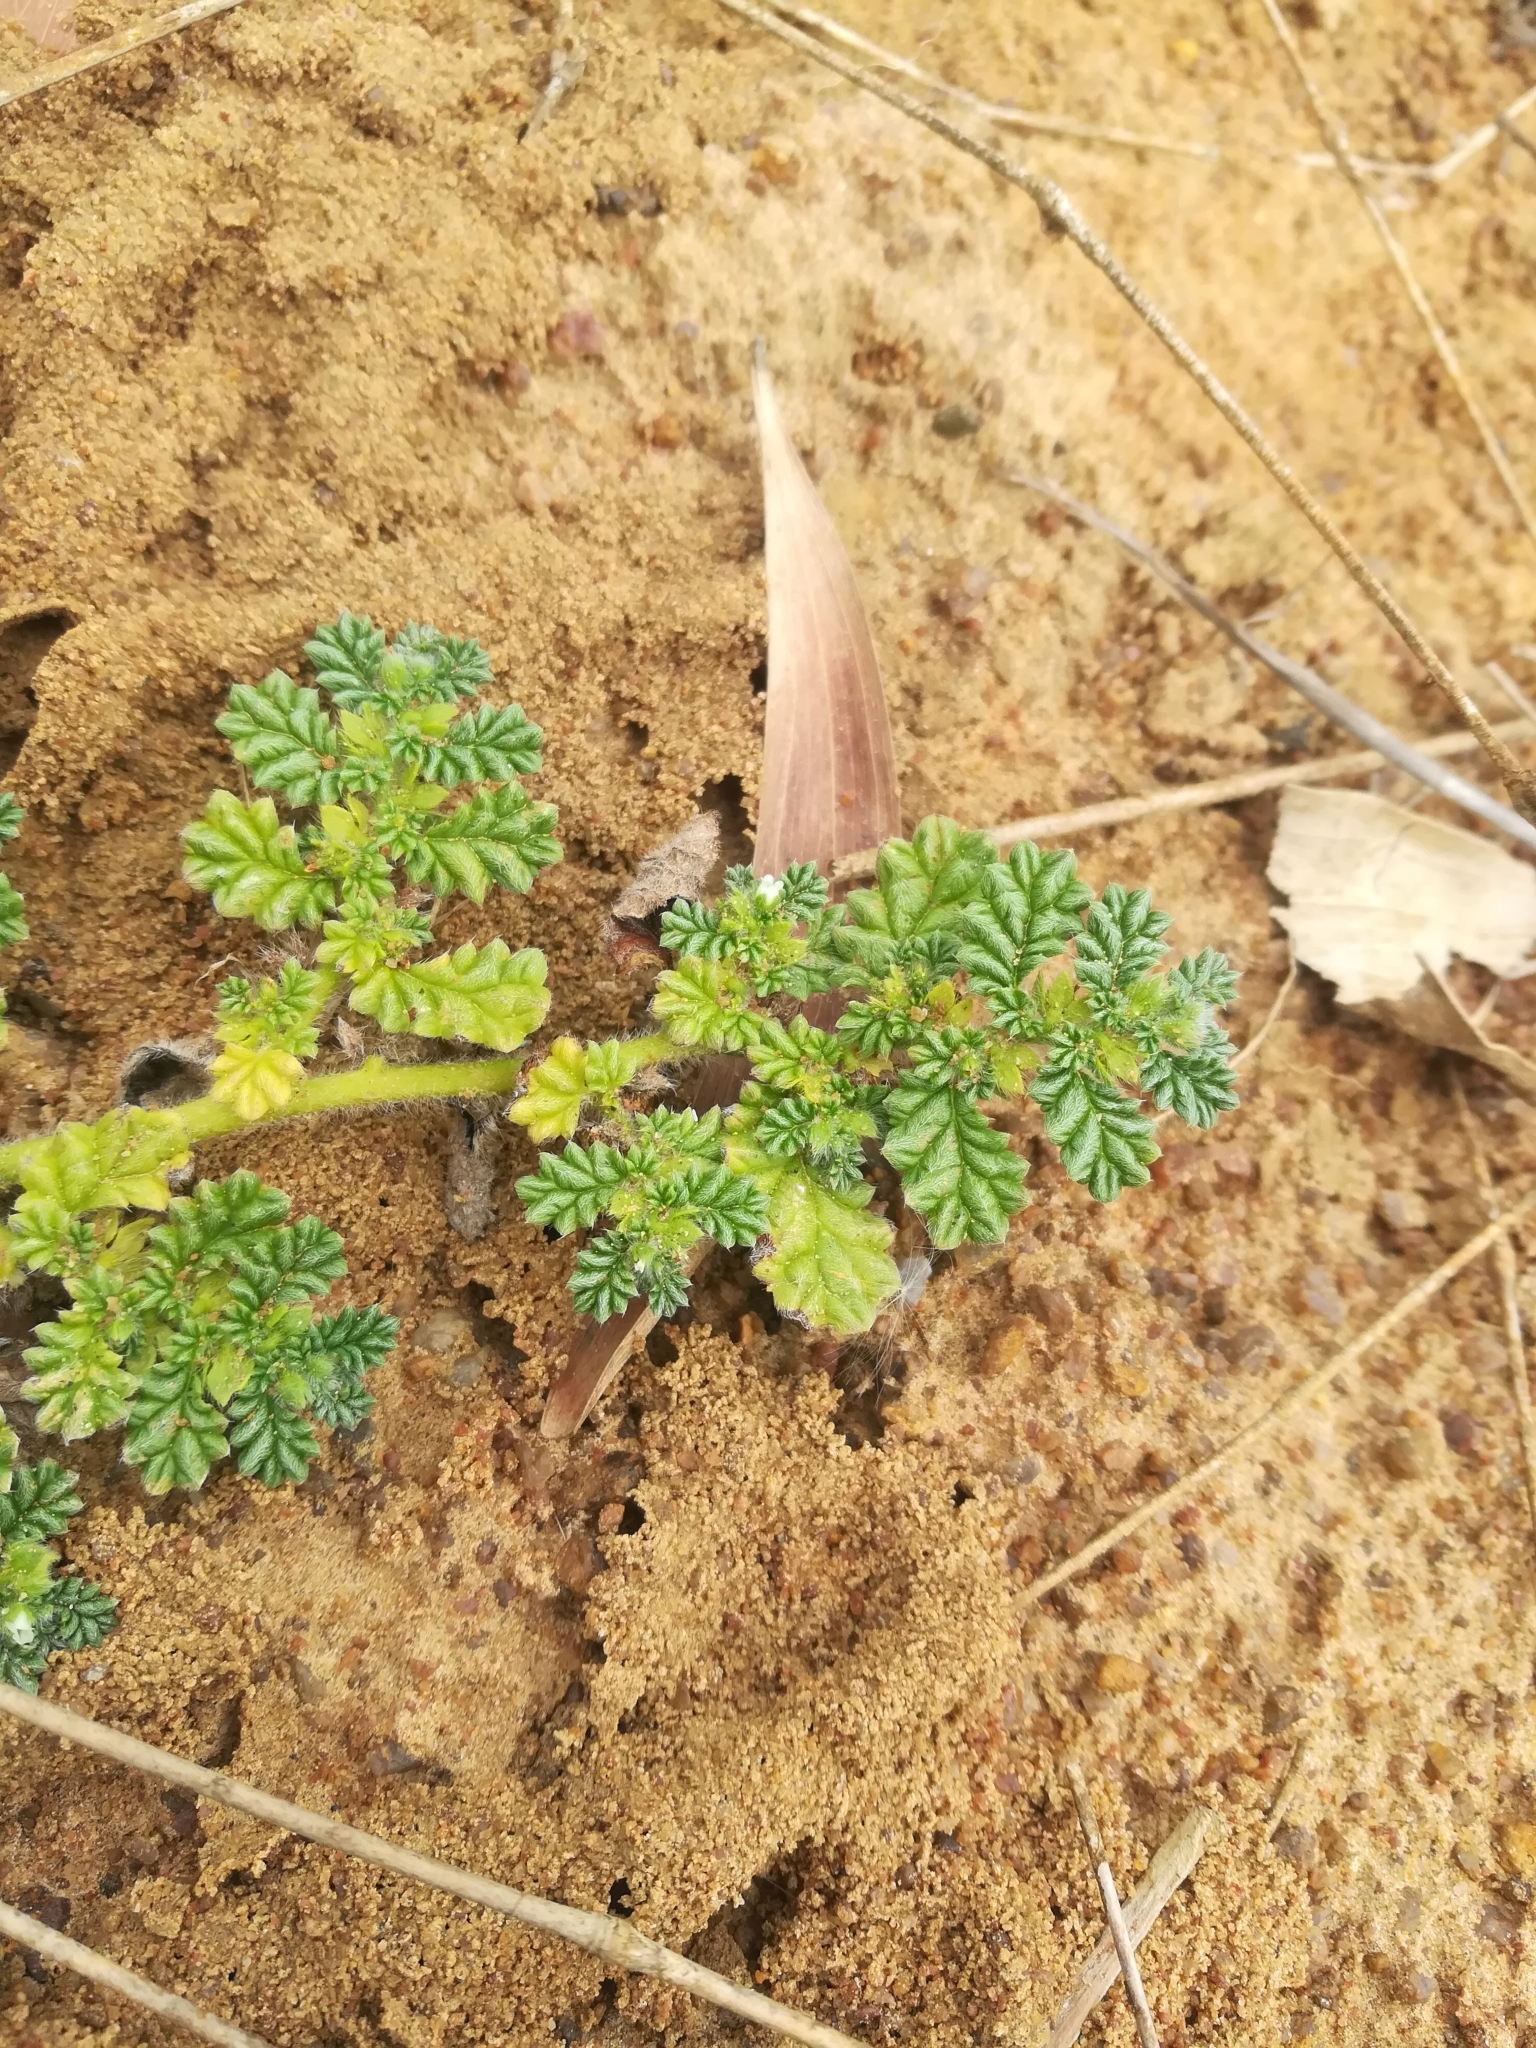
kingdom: Plantae
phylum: Tracheophyta
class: Magnoliopsida
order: Boraginales
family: Coldeniaceae
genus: Coldenia
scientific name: Coldenia procumbens
